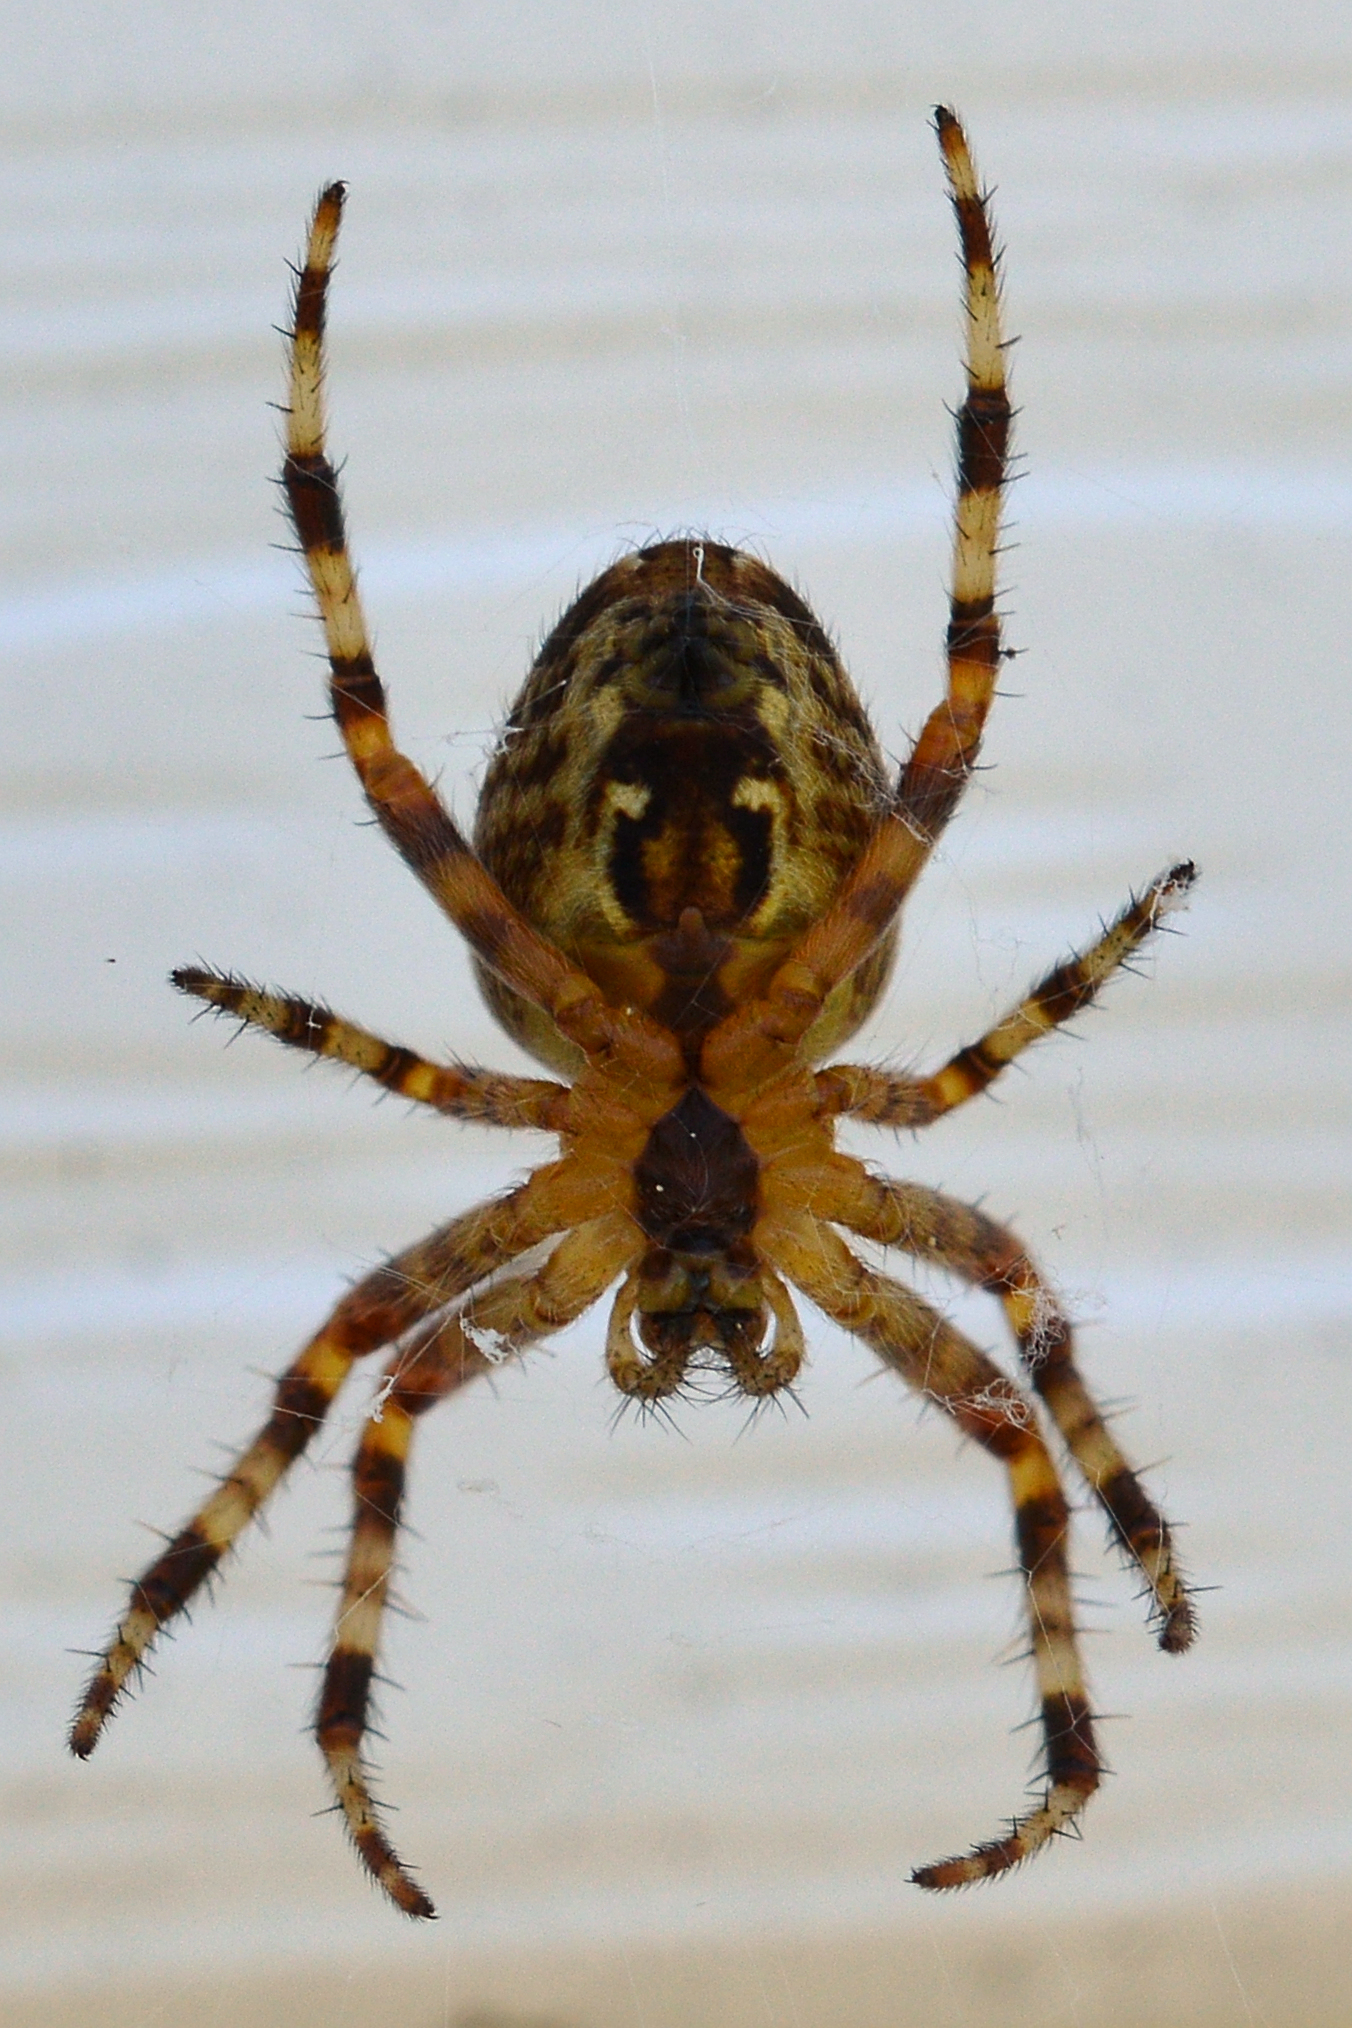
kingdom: Animalia
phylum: Arthropoda
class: Arachnida
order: Araneae
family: Araneidae
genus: Araneus
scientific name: Araneus diadematus
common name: Cross orbweaver
